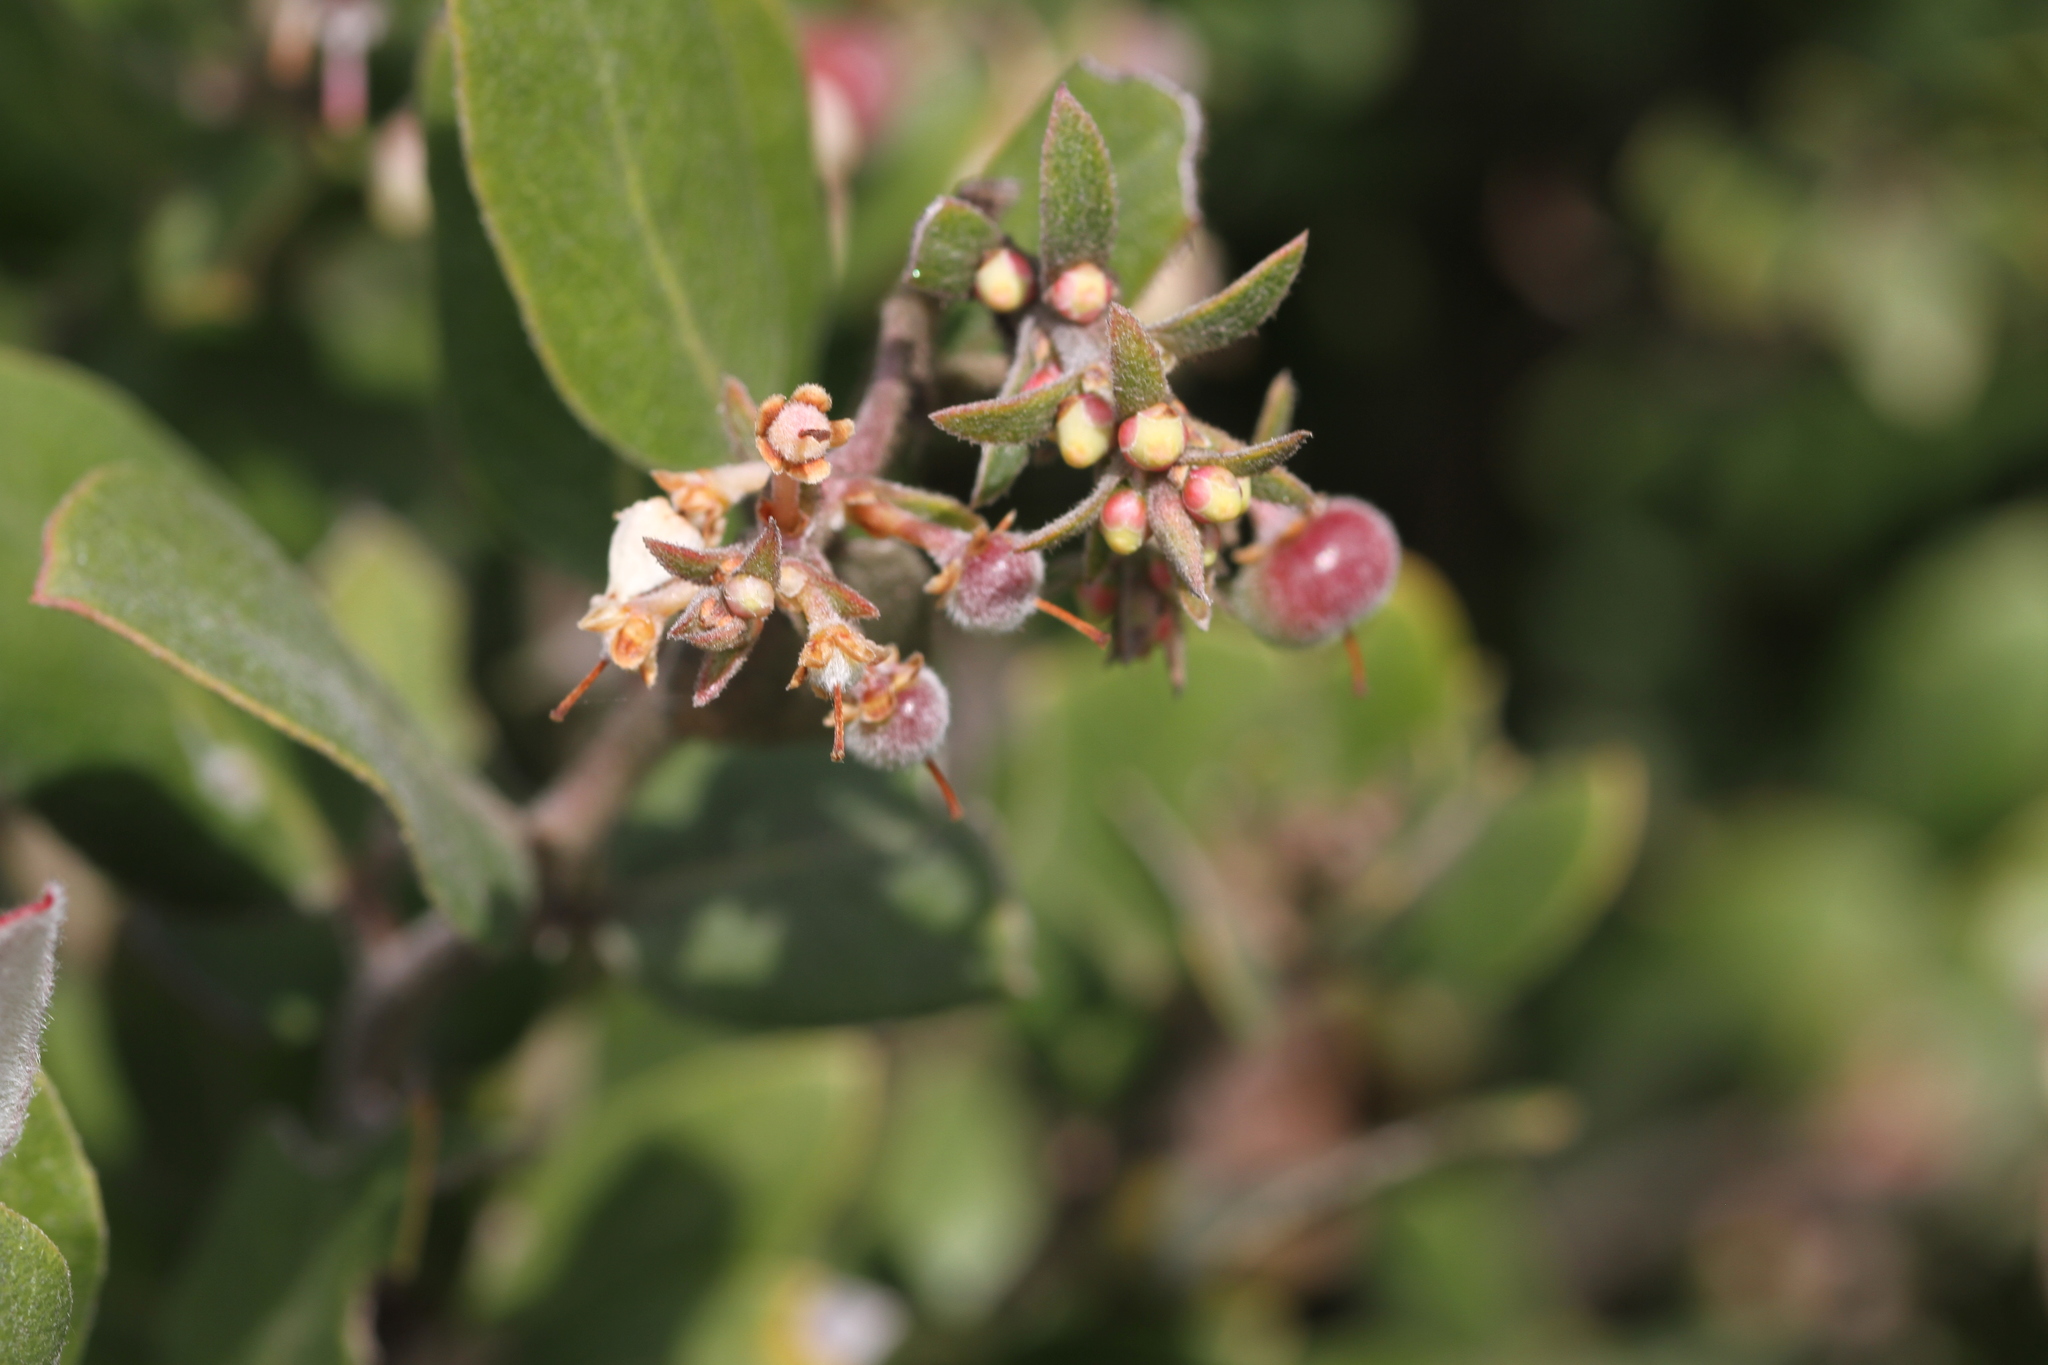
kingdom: Plantae
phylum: Tracheophyta
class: Magnoliopsida
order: Ericales
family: Ericaceae
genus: Arctostaphylos
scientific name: Arctostaphylos tomentosa
